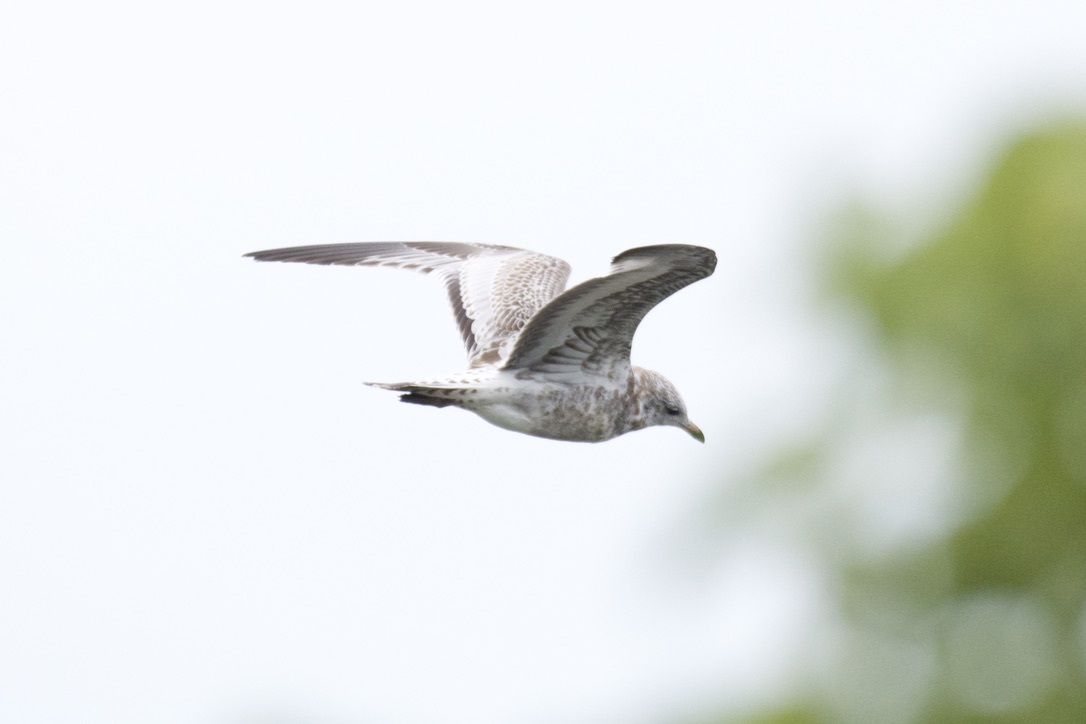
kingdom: Animalia
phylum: Chordata
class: Aves
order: Charadriiformes
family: Laridae
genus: Larus
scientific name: Larus delawarensis
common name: Ring-billed gull
